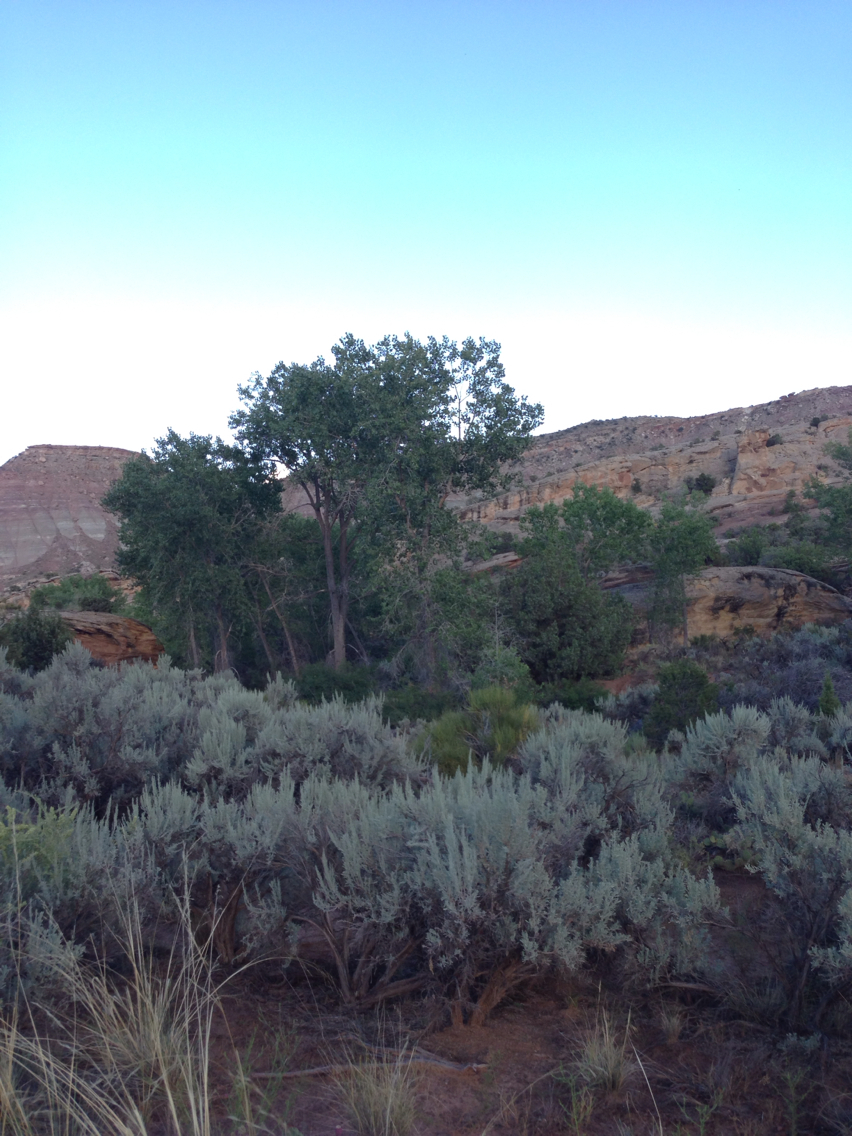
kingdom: Plantae
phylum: Tracheophyta
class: Magnoliopsida
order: Malpighiales
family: Salicaceae
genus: Populus
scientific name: Populus deltoides
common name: Eastern cottonwood
